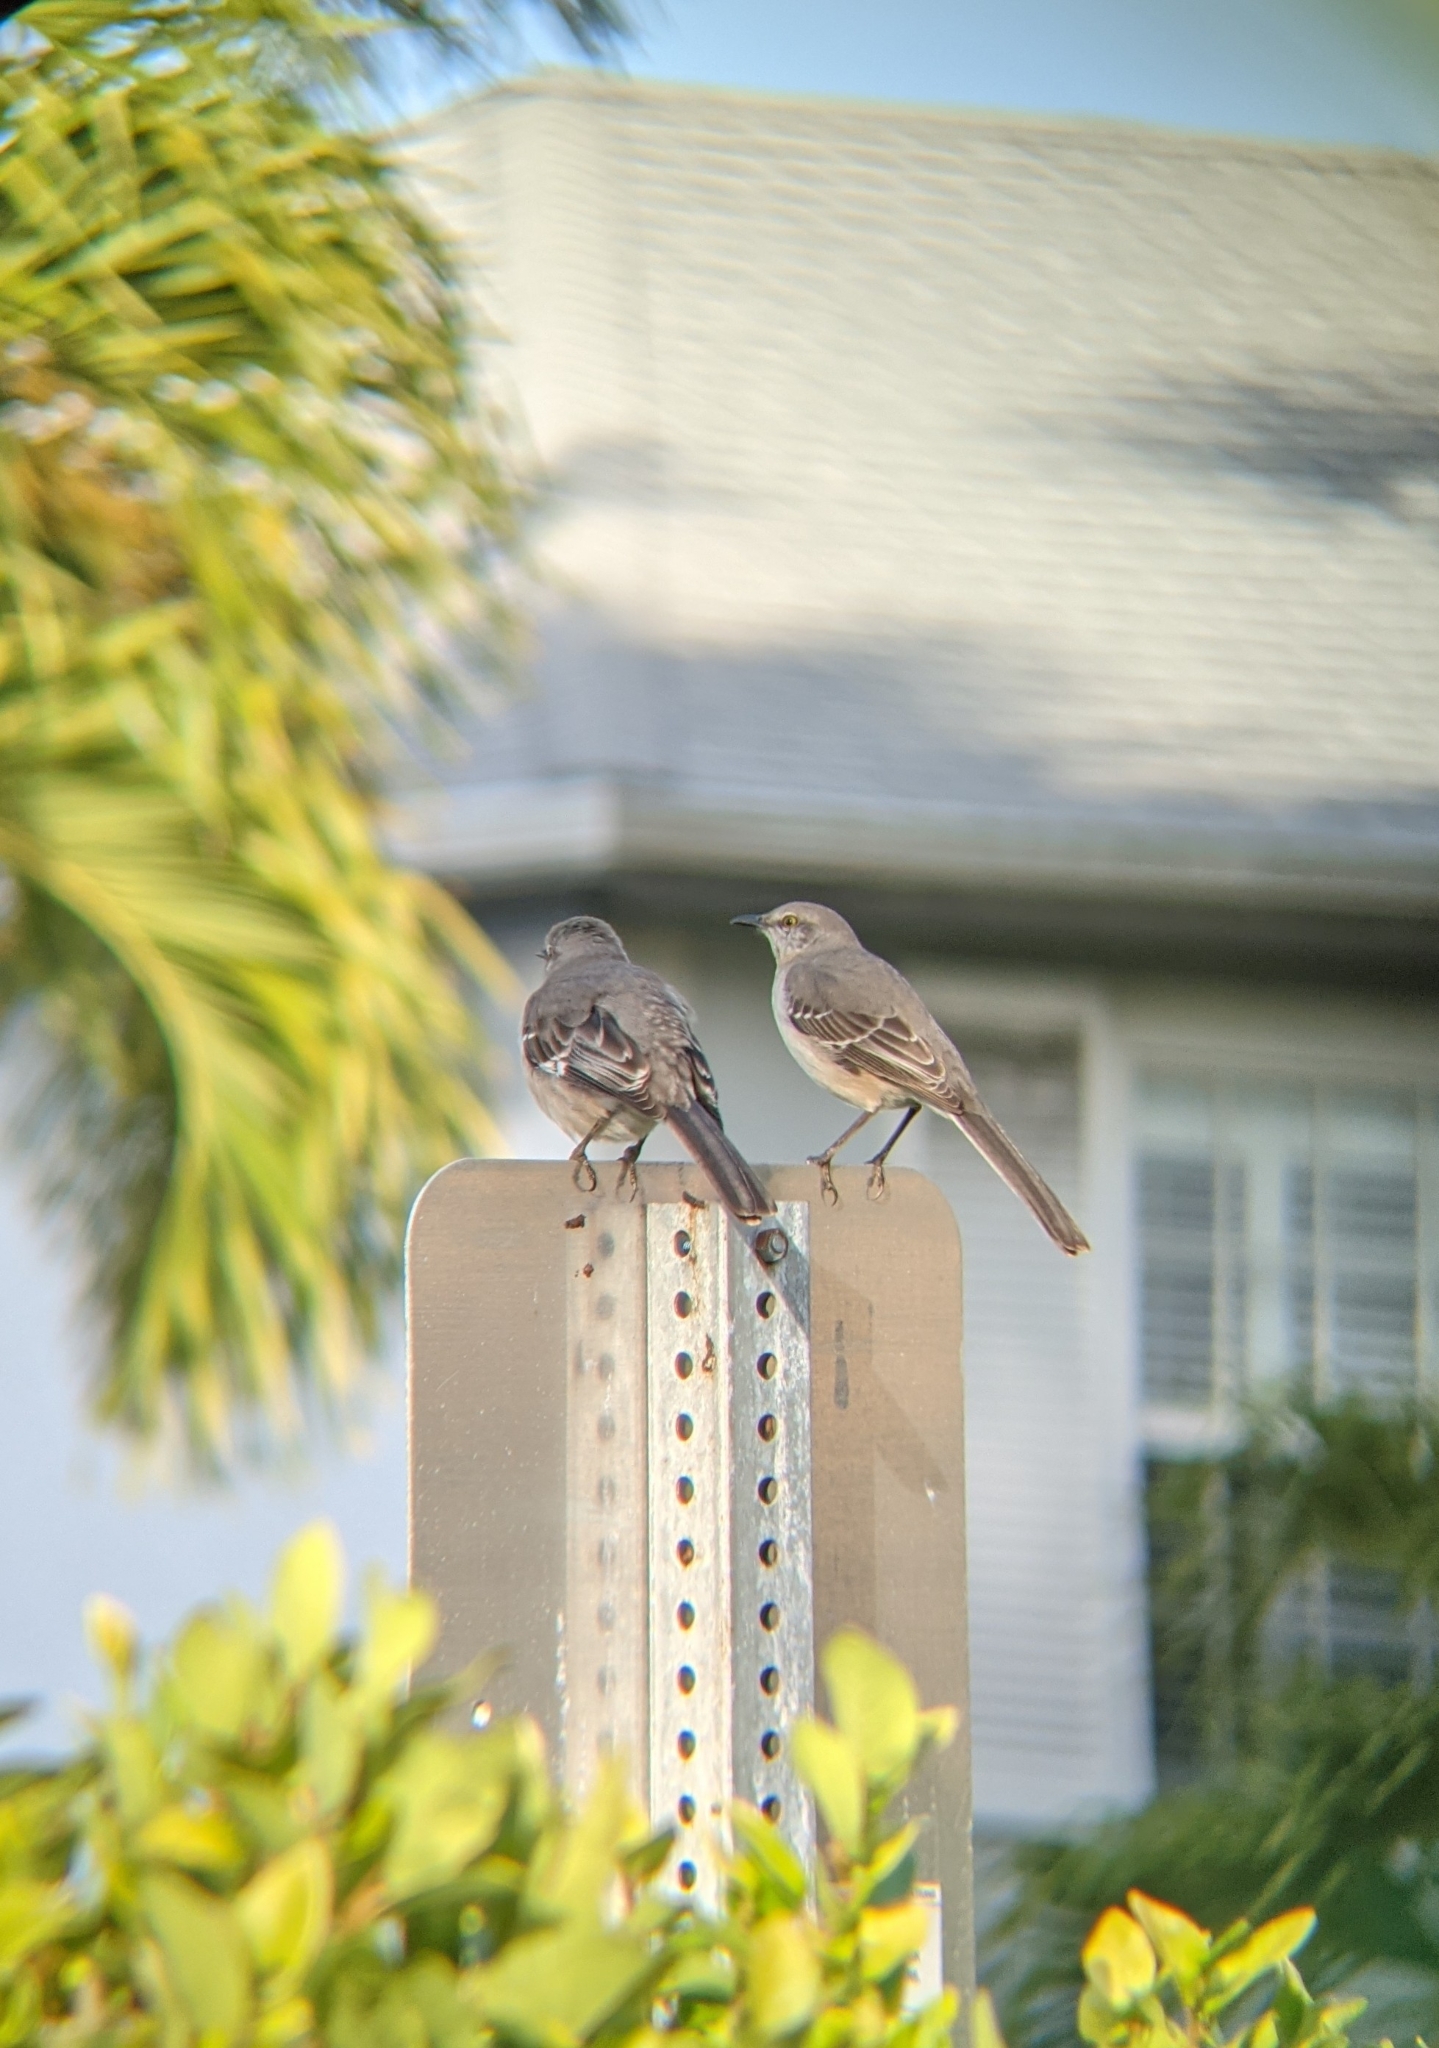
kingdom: Animalia
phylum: Chordata
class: Aves
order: Passeriformes
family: Mimidae
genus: Mimus
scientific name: Mimus polyglottos
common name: Northern mockingbird
